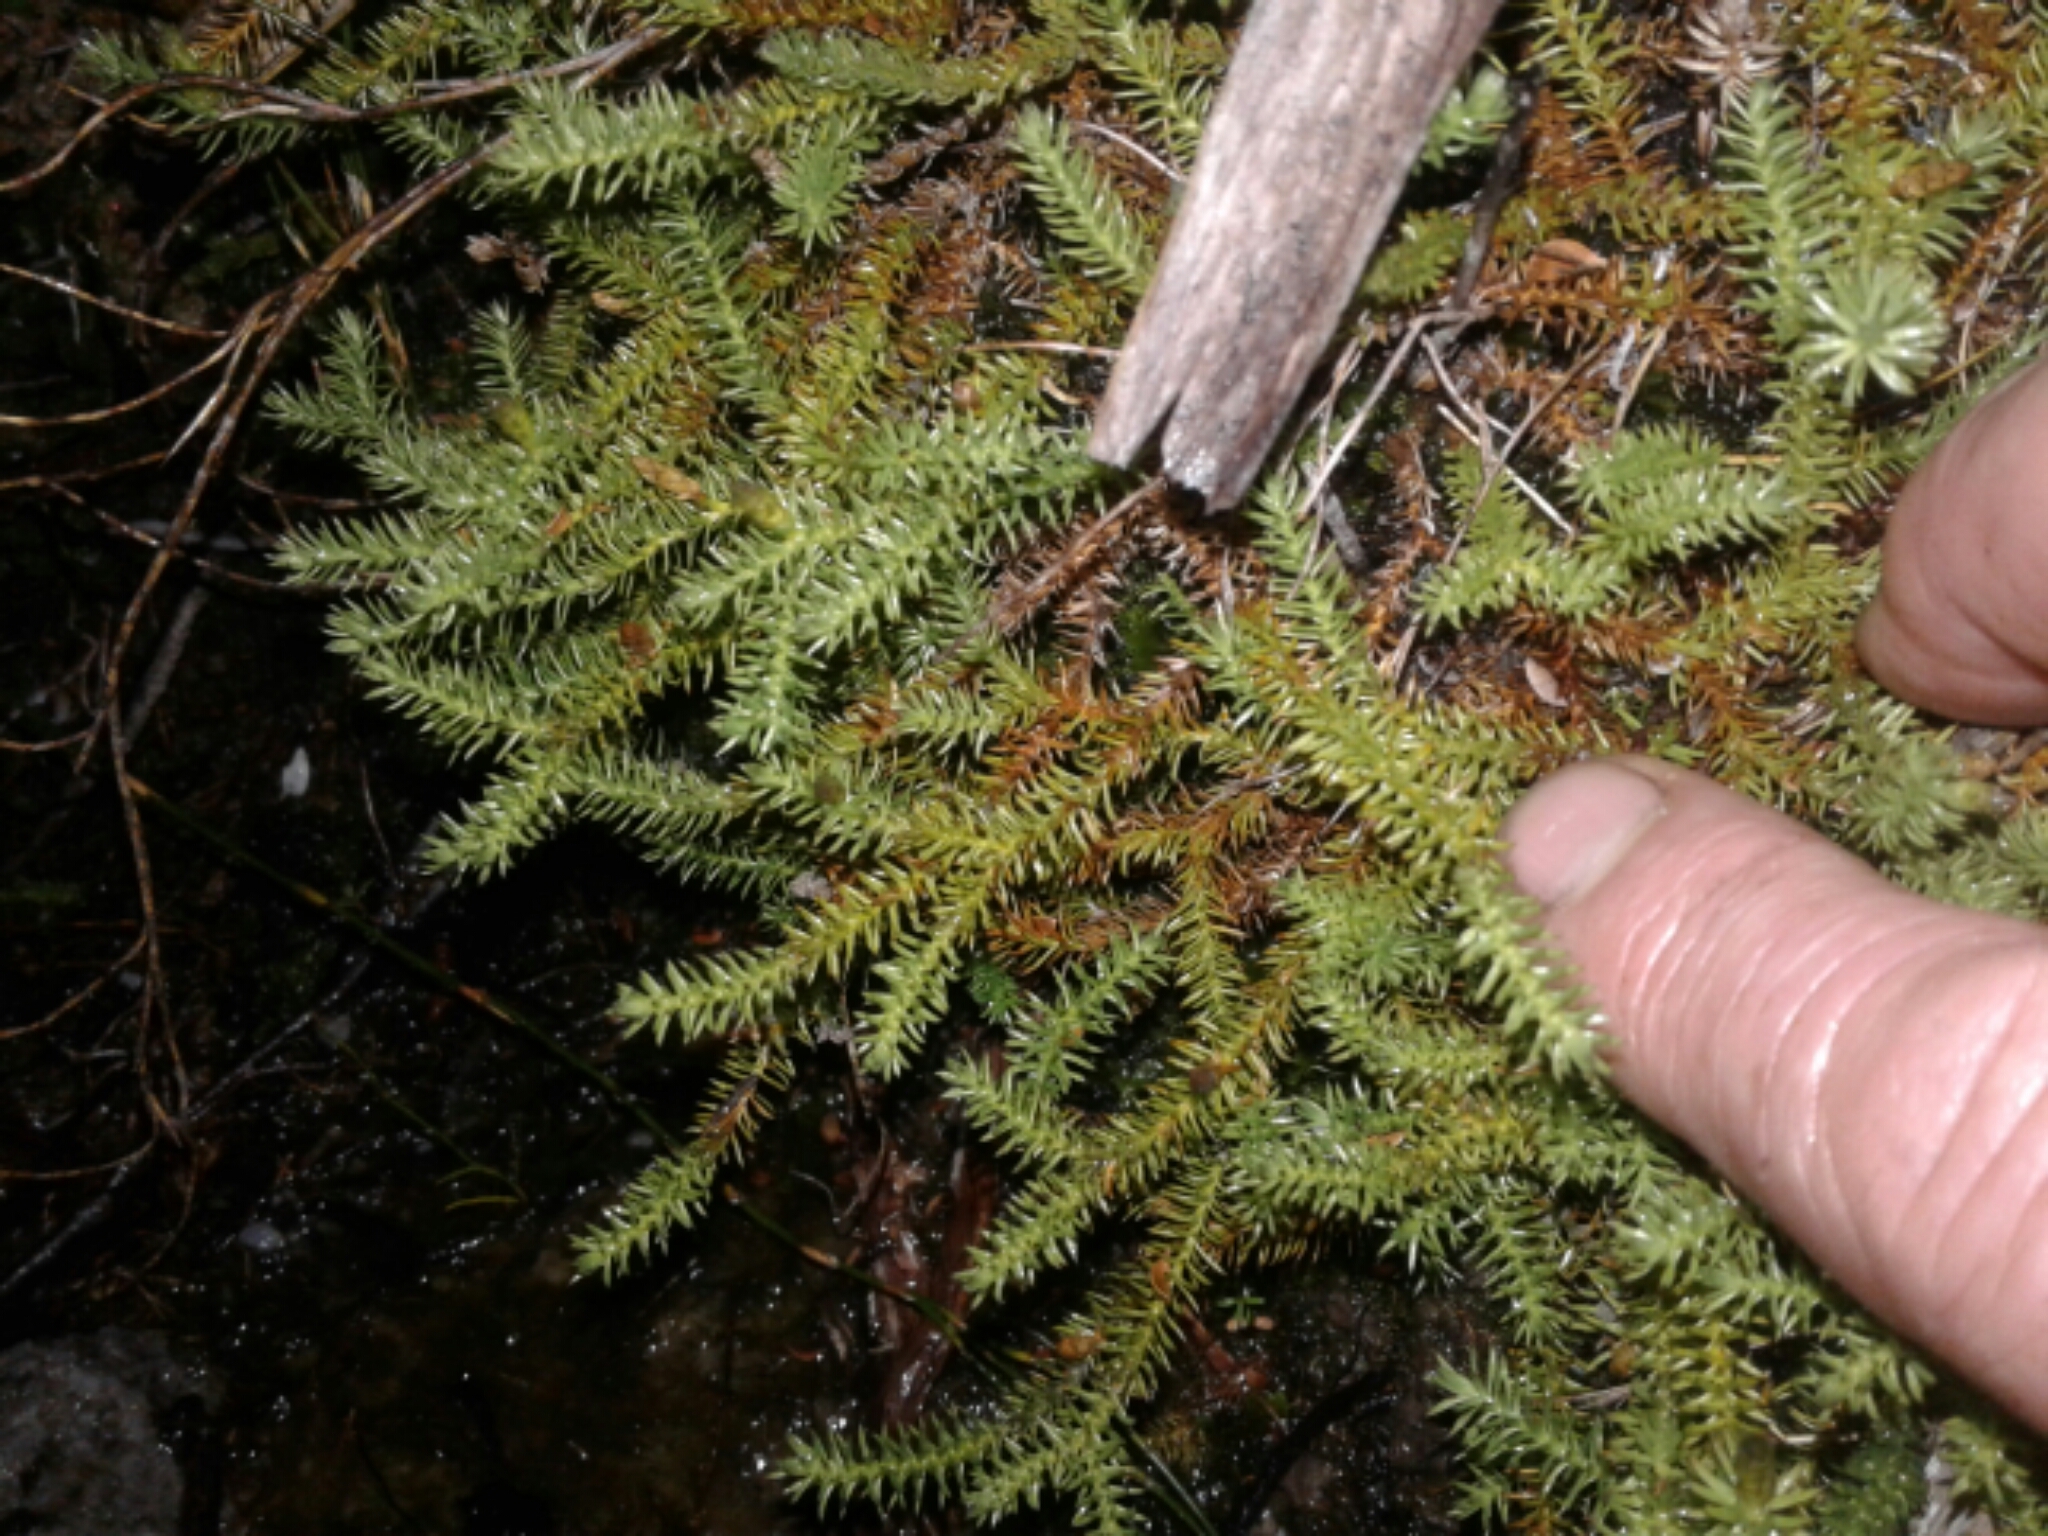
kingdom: Plantae
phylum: Tracheophyta
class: Lycopodiopsida
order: Lycopodiales
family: Lycopodiaceae
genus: Lateristachys
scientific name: Lateristachys lateralis
